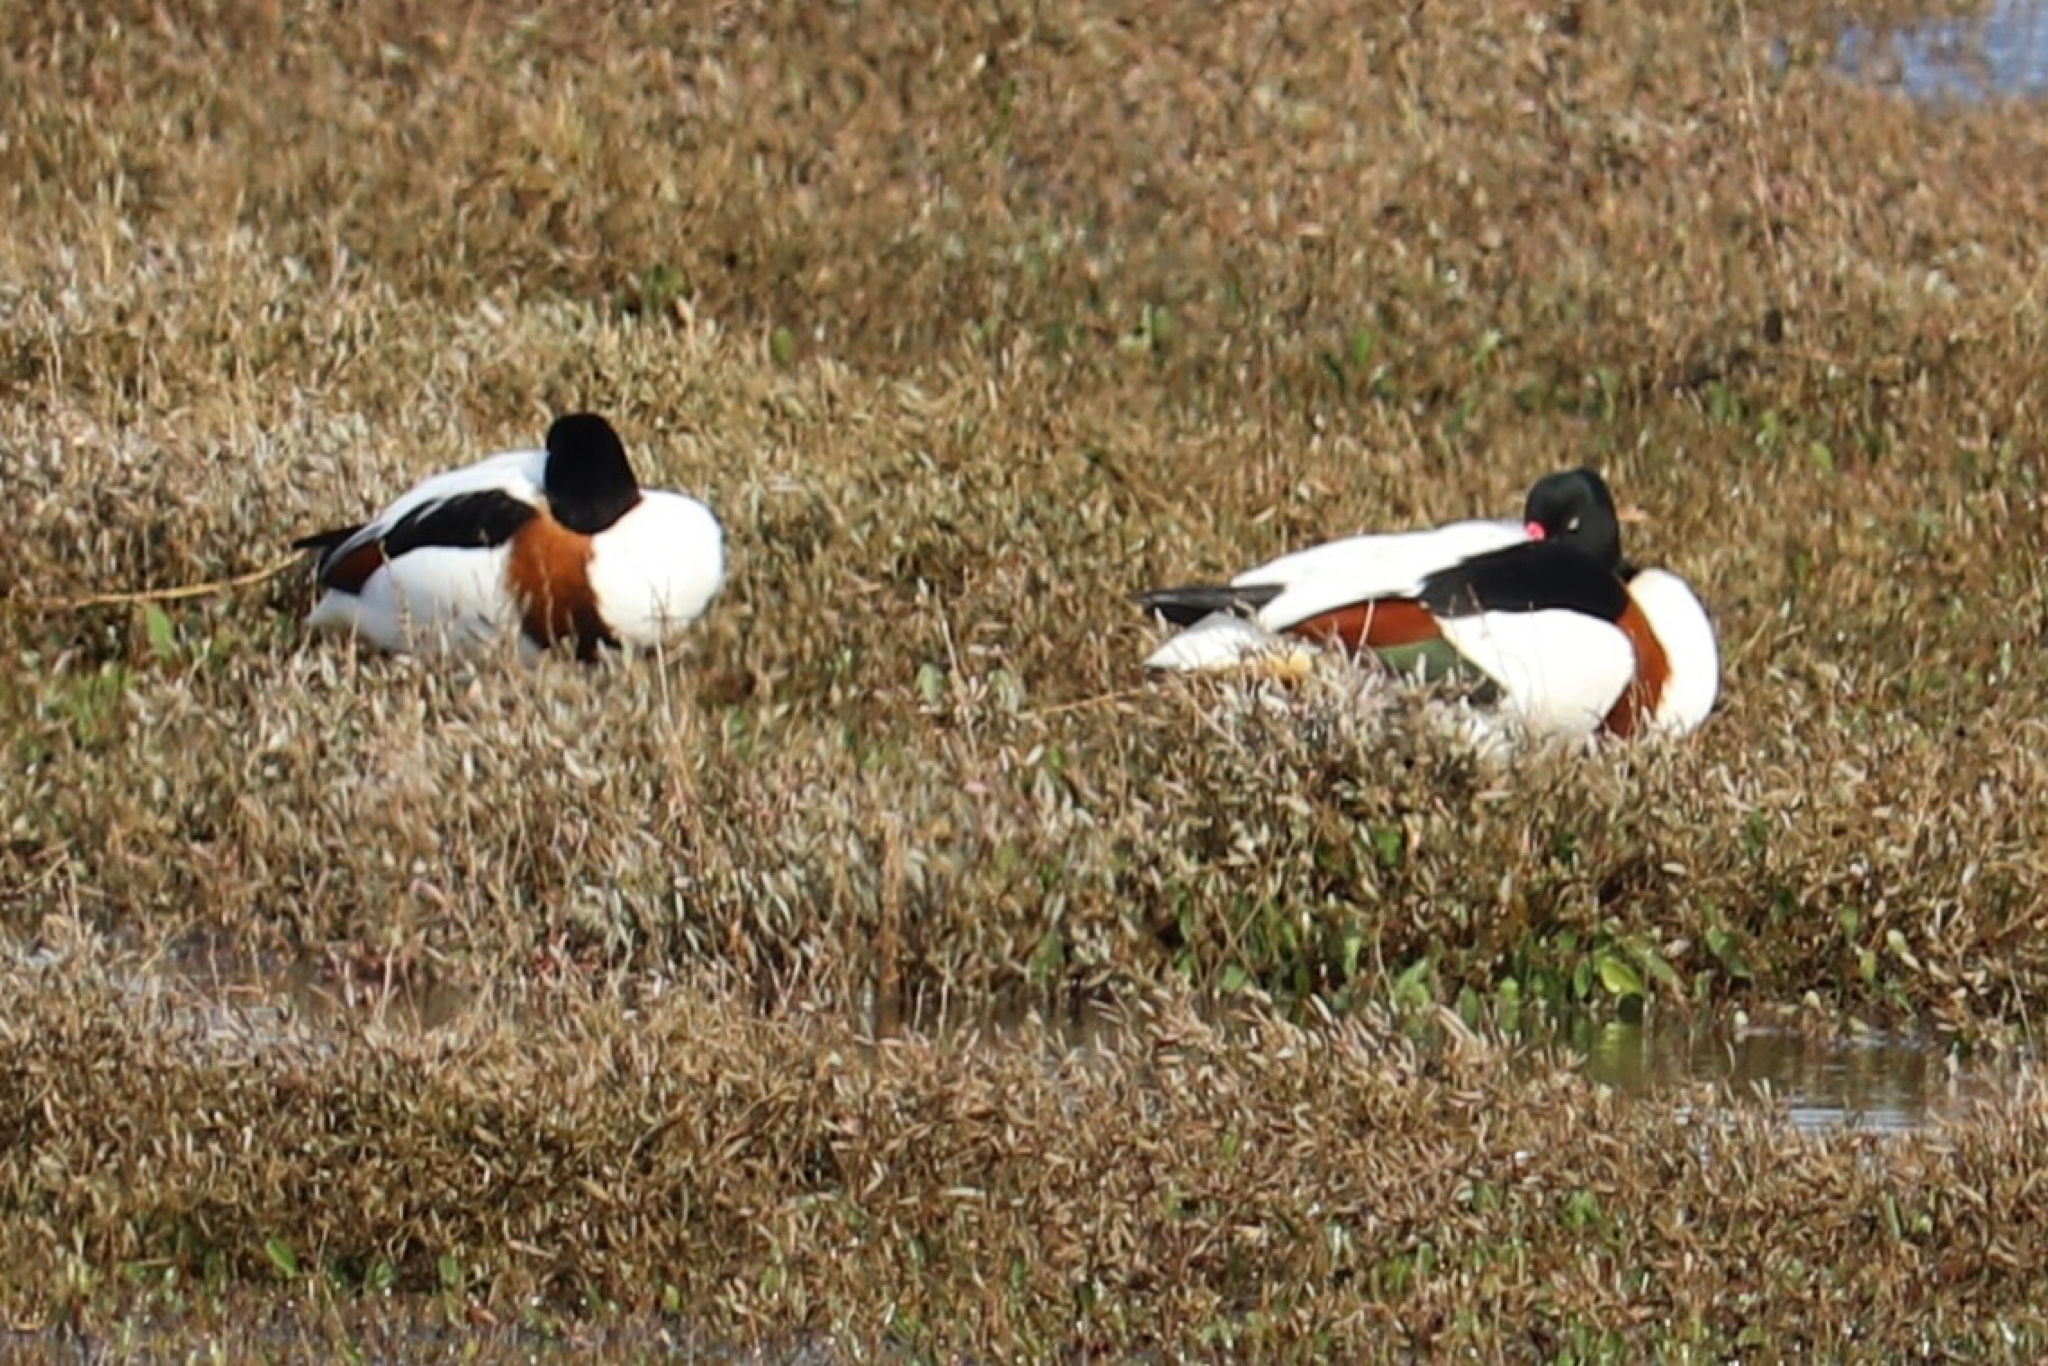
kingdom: Animalia
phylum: Chordata
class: Aves
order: Anseriformes
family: Anatidae
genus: Tadorna
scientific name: Tadorna tadorna
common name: Common shelduck
